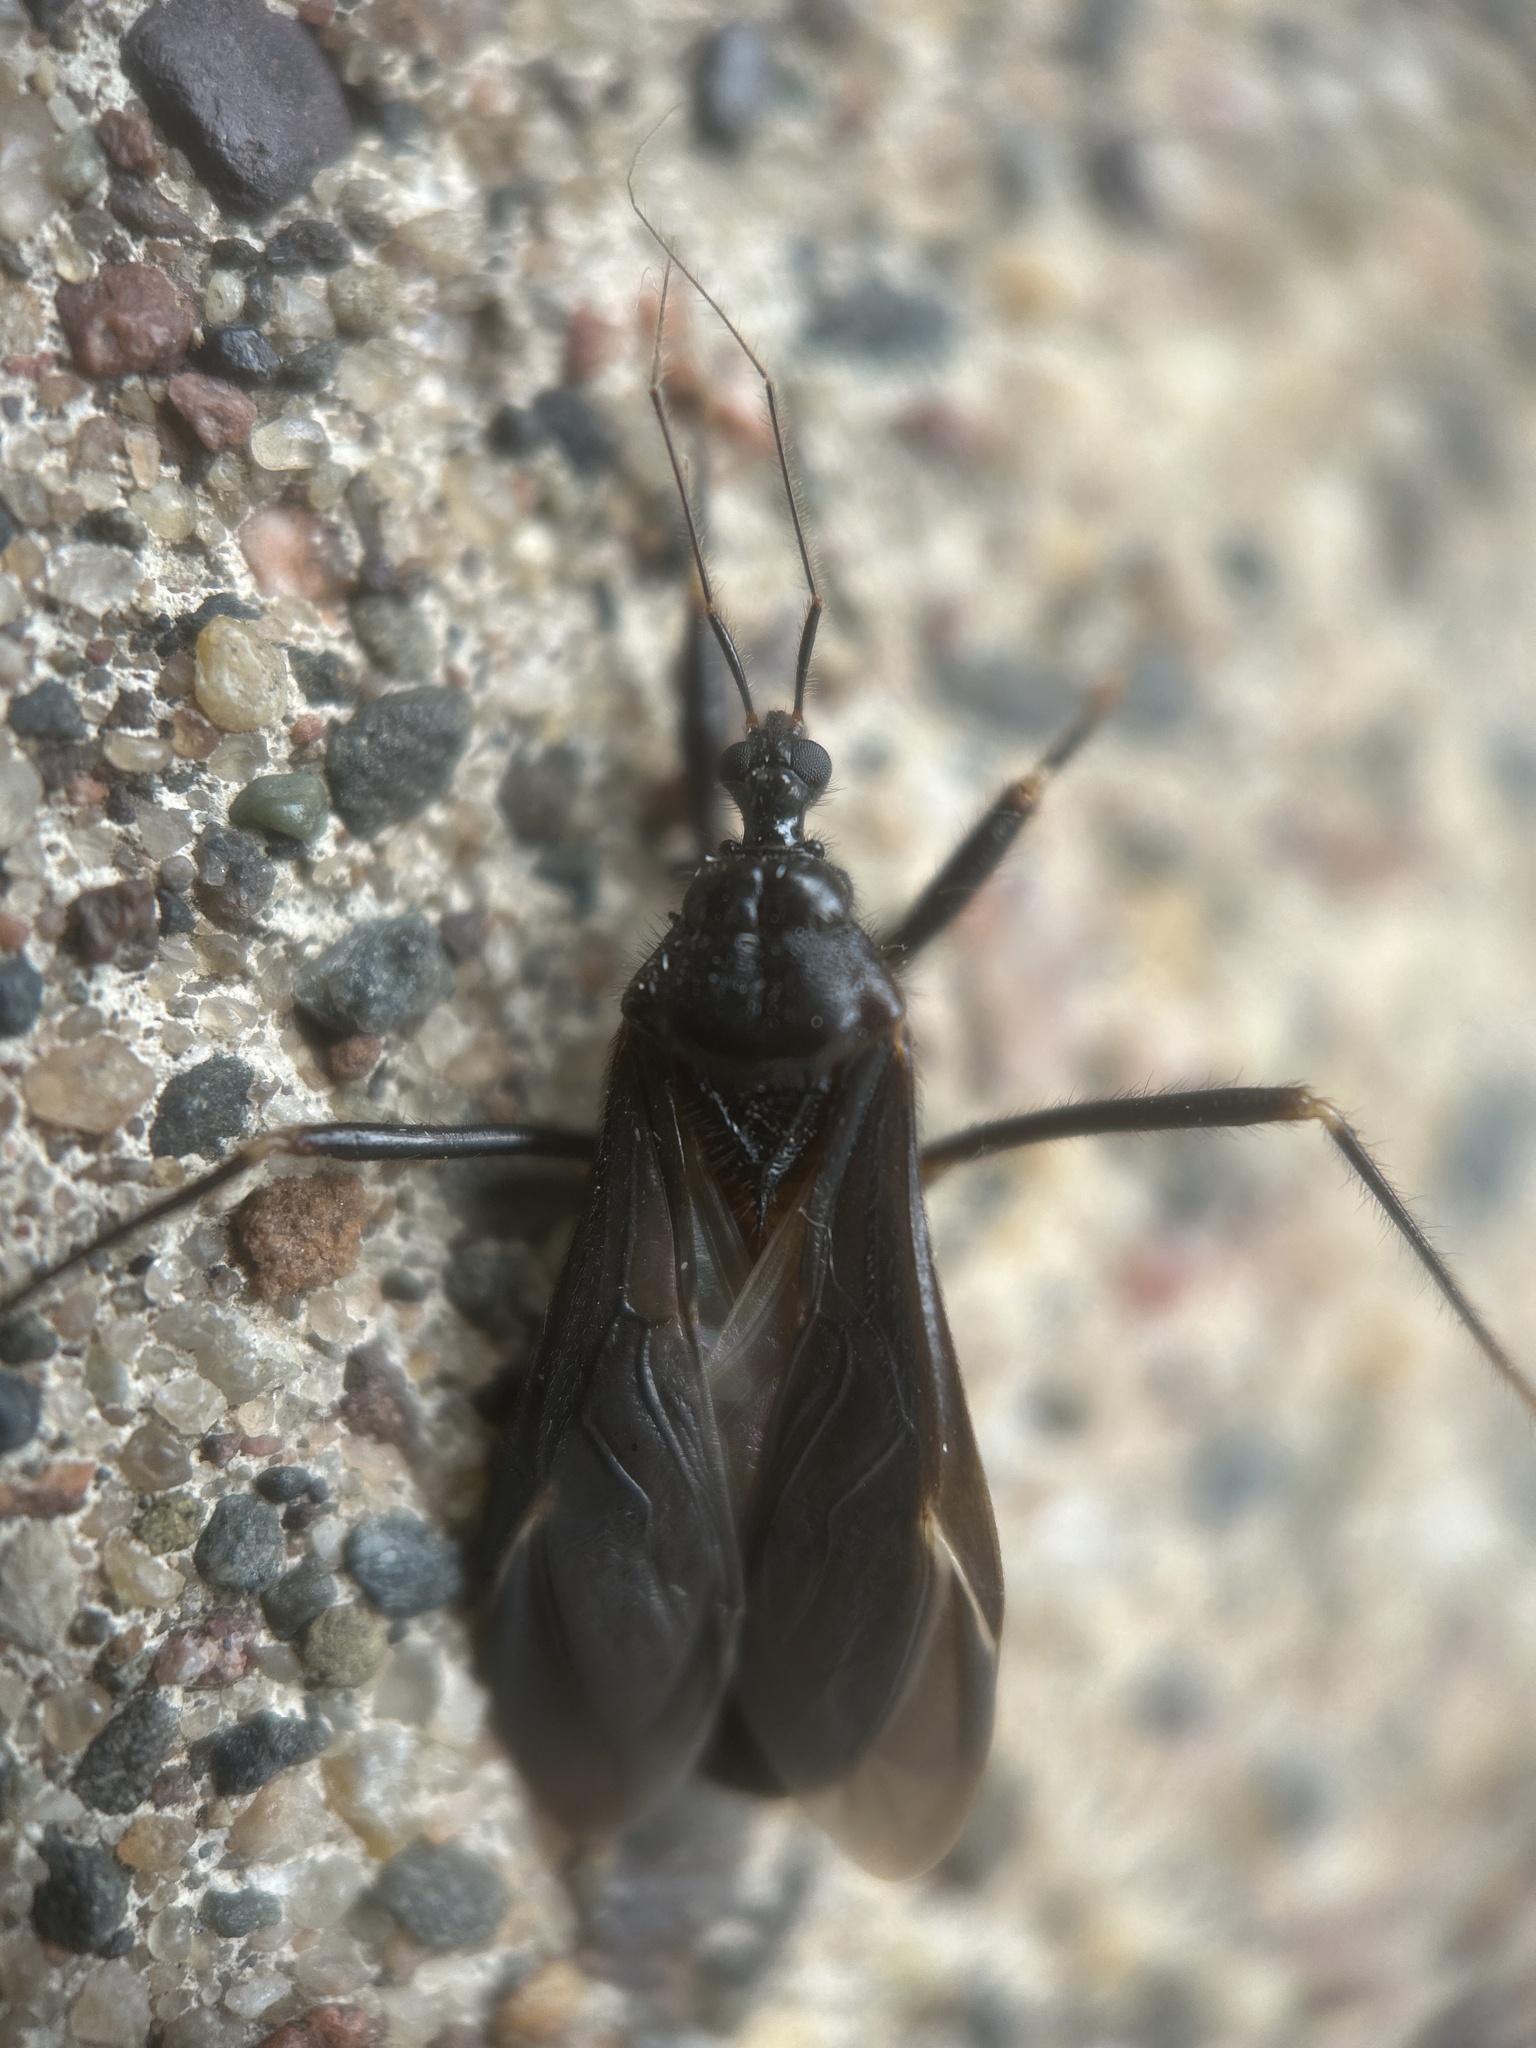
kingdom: Animalia
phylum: Arthropoda
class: Insecta
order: Hemiptera
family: Reduviidae
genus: Reduvius
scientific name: Reduvius personatus
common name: Masked hunter
